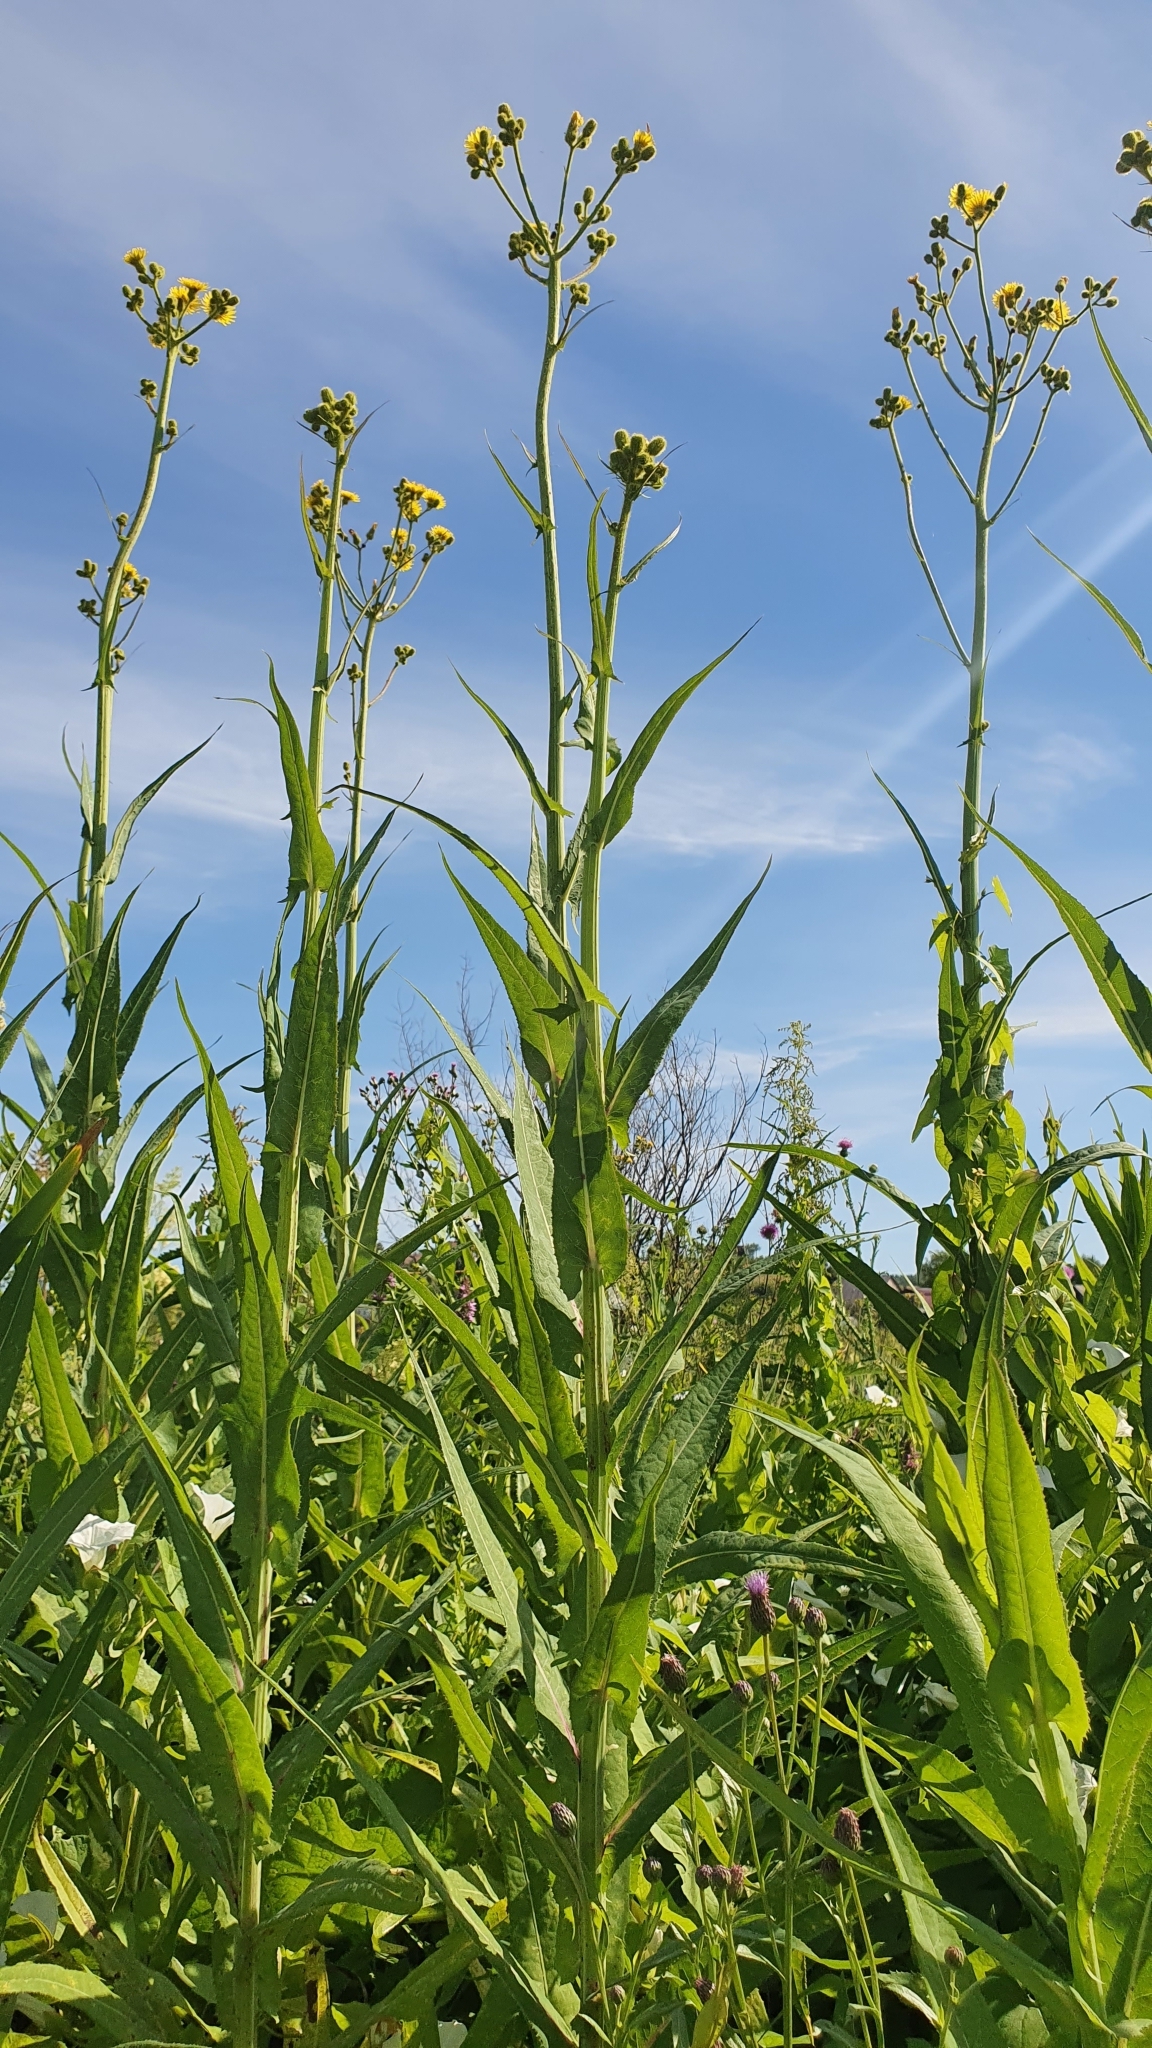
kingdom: Plantae
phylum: Tracheophyta
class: Magnoliopsida
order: Asterales
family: Asteraceae
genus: Sonchus
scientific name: Sonchus palustris
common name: Marsh sow-thistle
